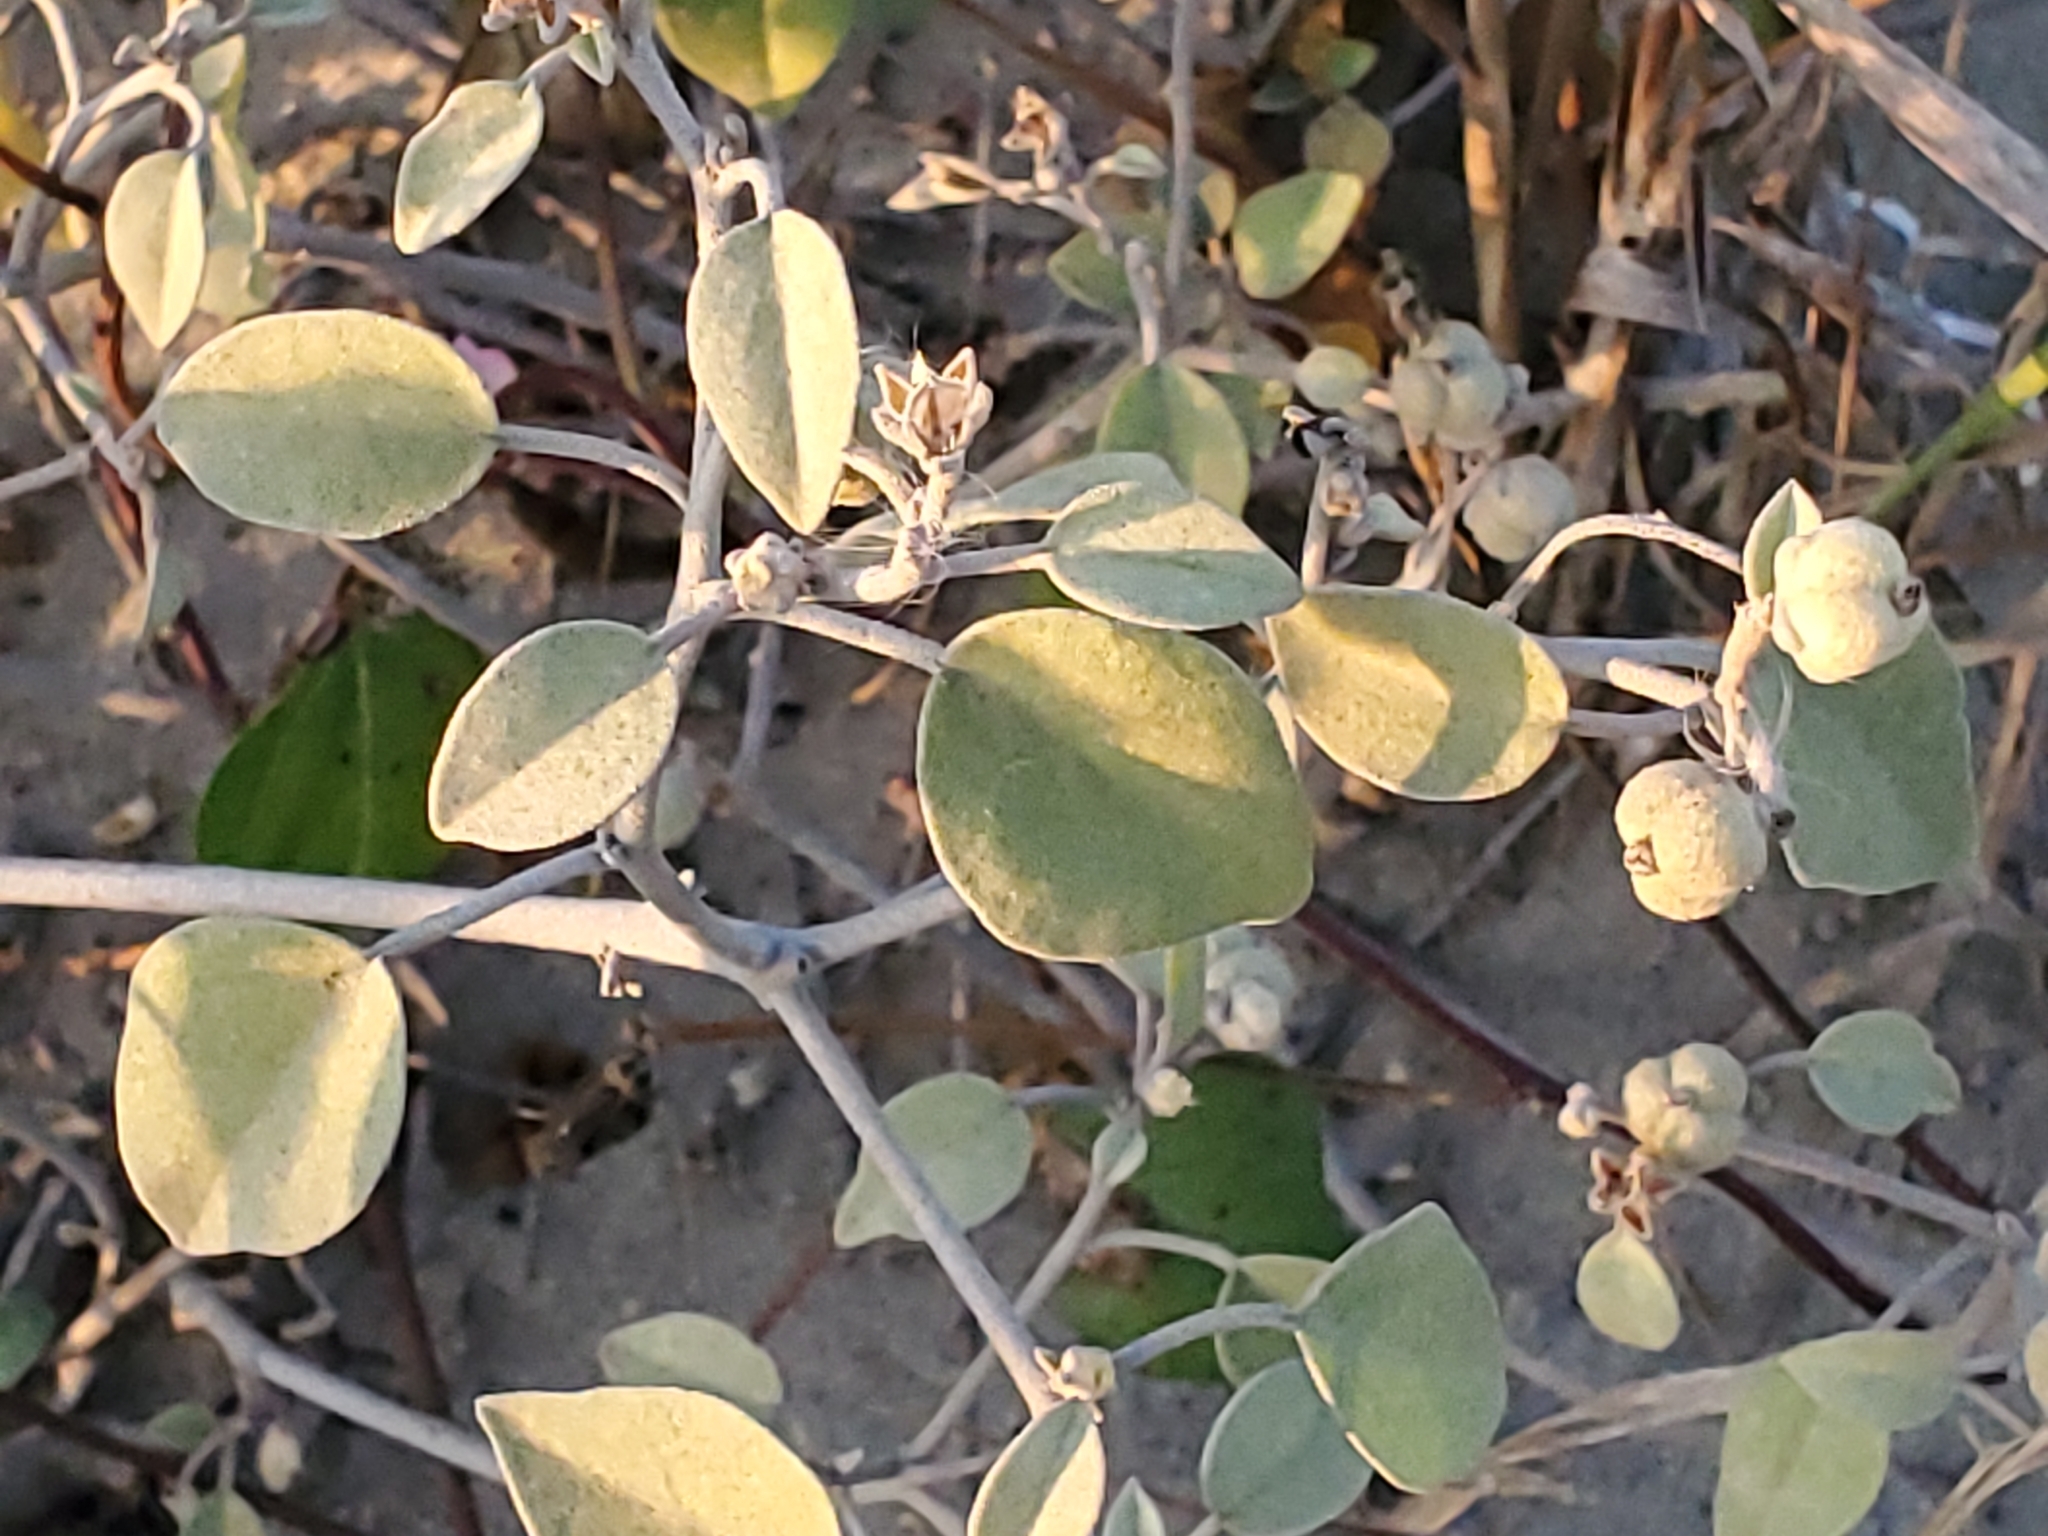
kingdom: Plantae
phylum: Tracheophyta
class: Magnoliopsida
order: Malpighiales
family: Euphorbiaceae
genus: Croton
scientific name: Croton punctatus
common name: Beach-tea
